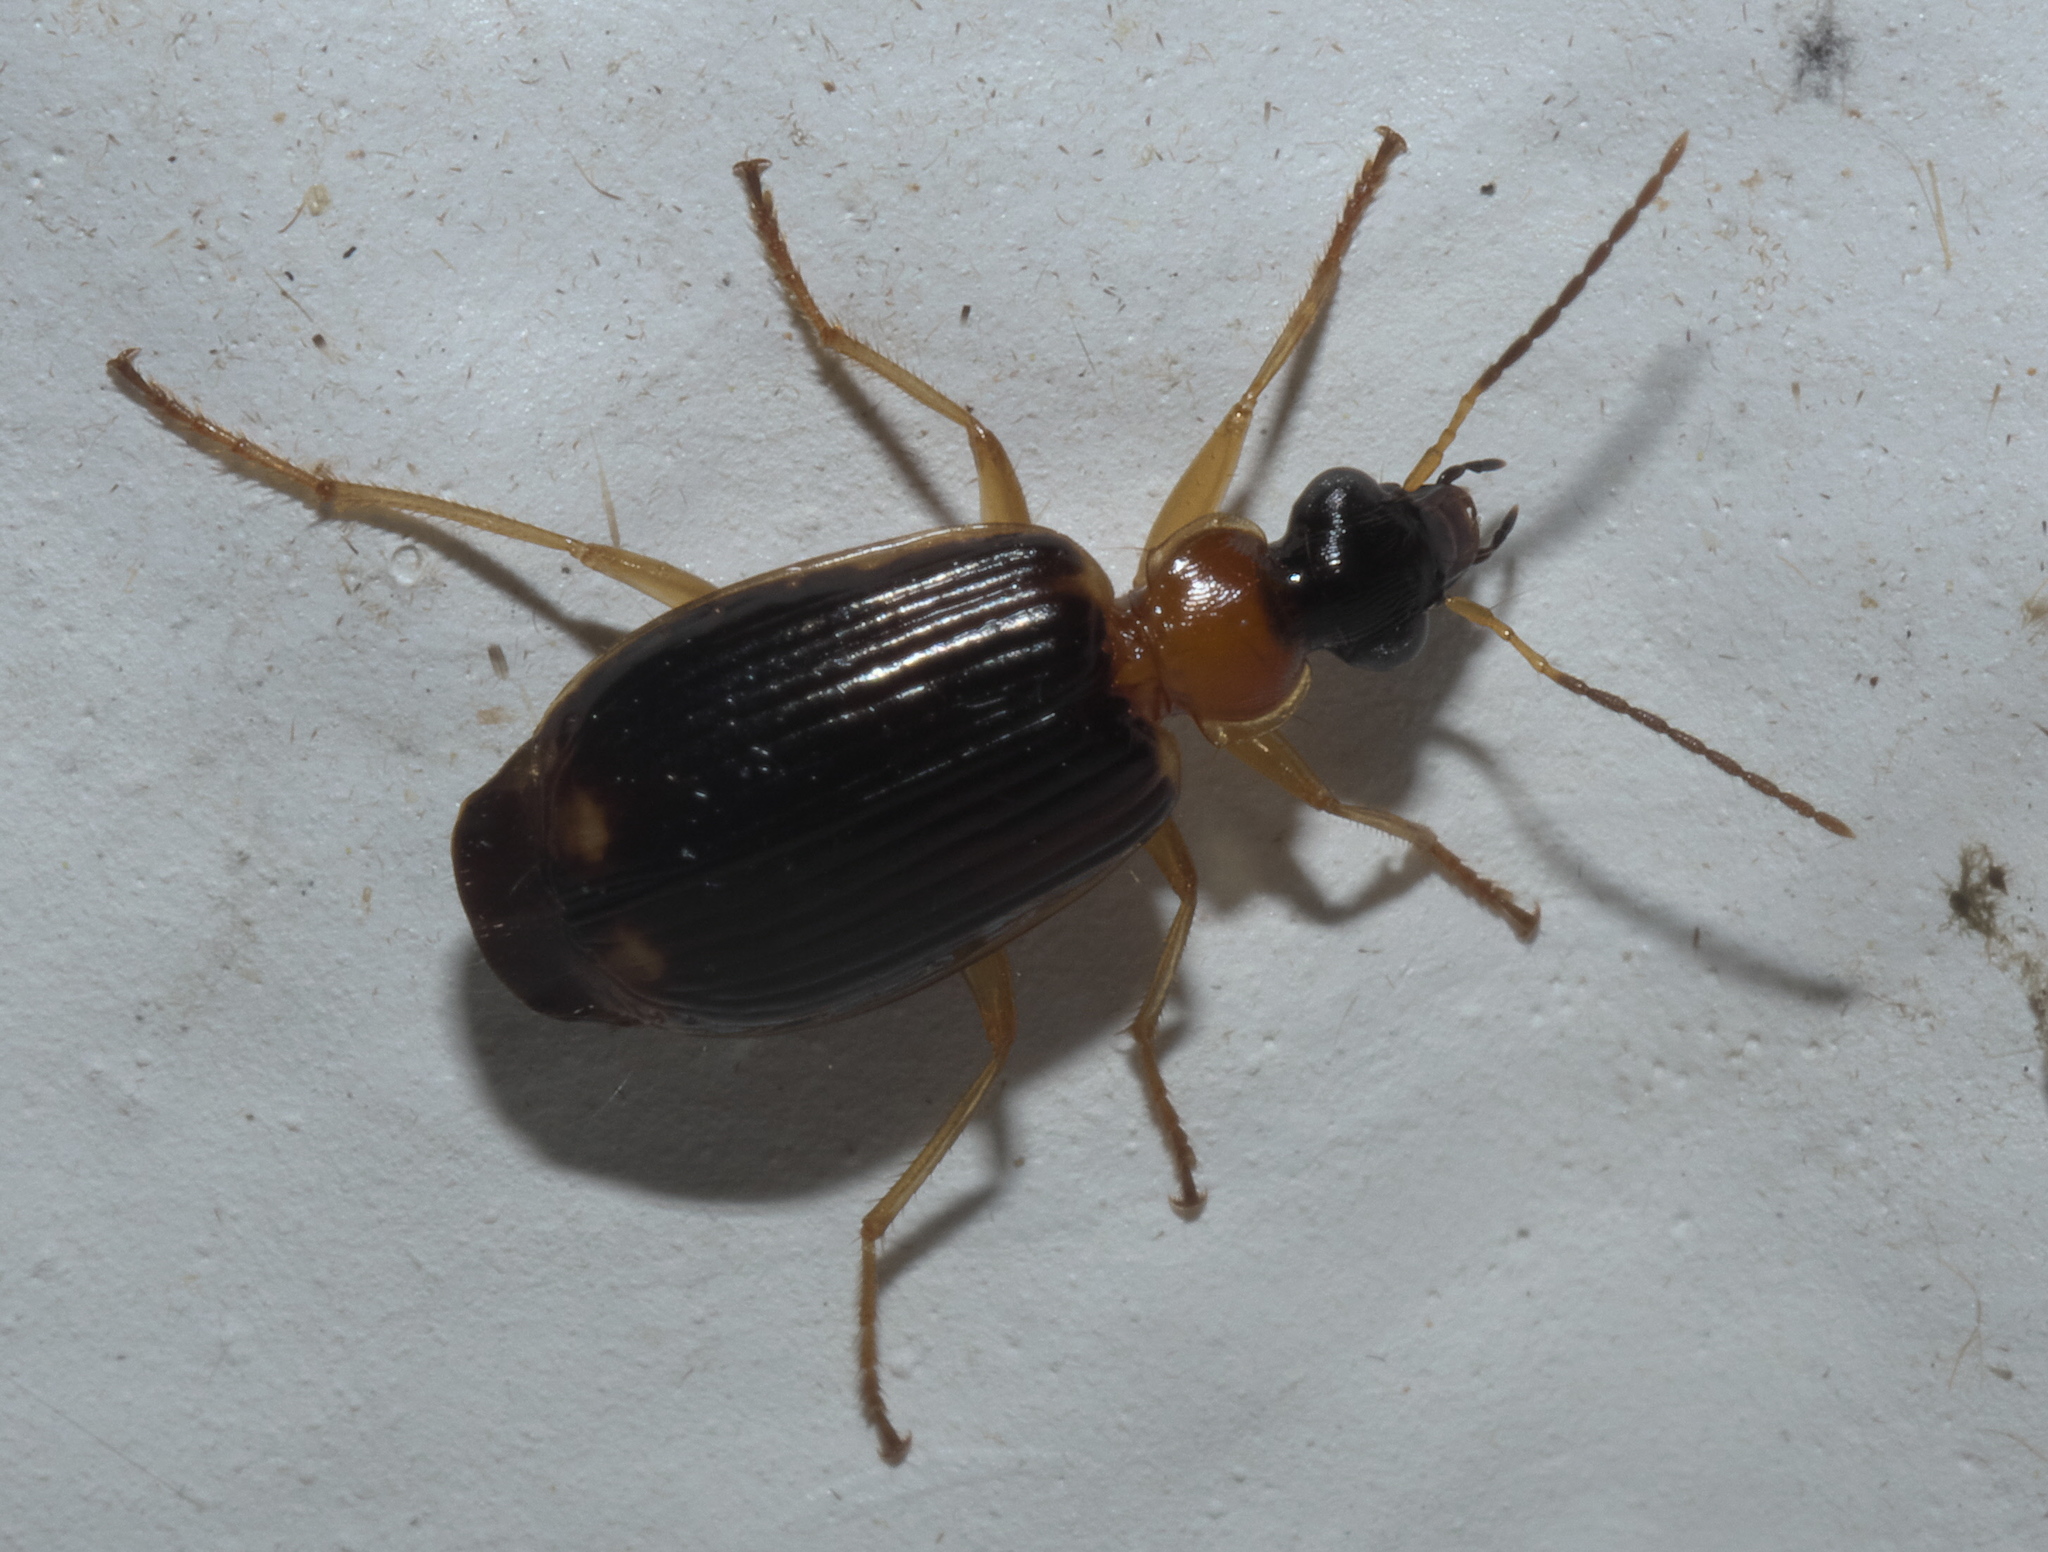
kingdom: Animalia
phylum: Arthropoda
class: Insecta
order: Coleoptera
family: Carabidae
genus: Lebia
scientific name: Lebia analis
